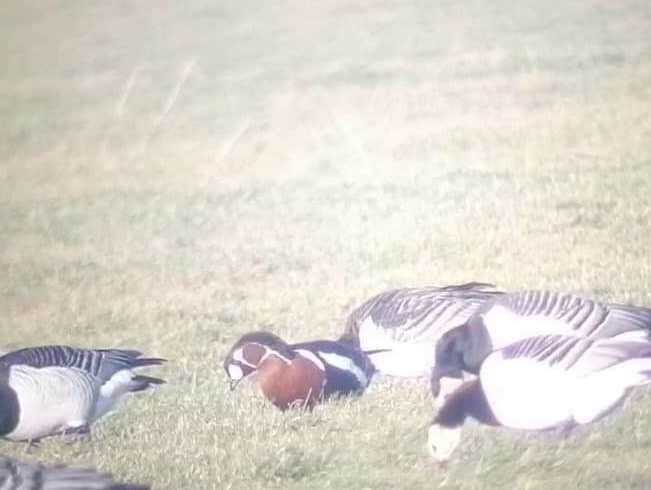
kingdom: Animalia
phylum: Chordata
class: Aves
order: Anseriformes
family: Anatidae
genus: Branta
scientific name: Branta ruficollis
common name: Red-breasted goose
